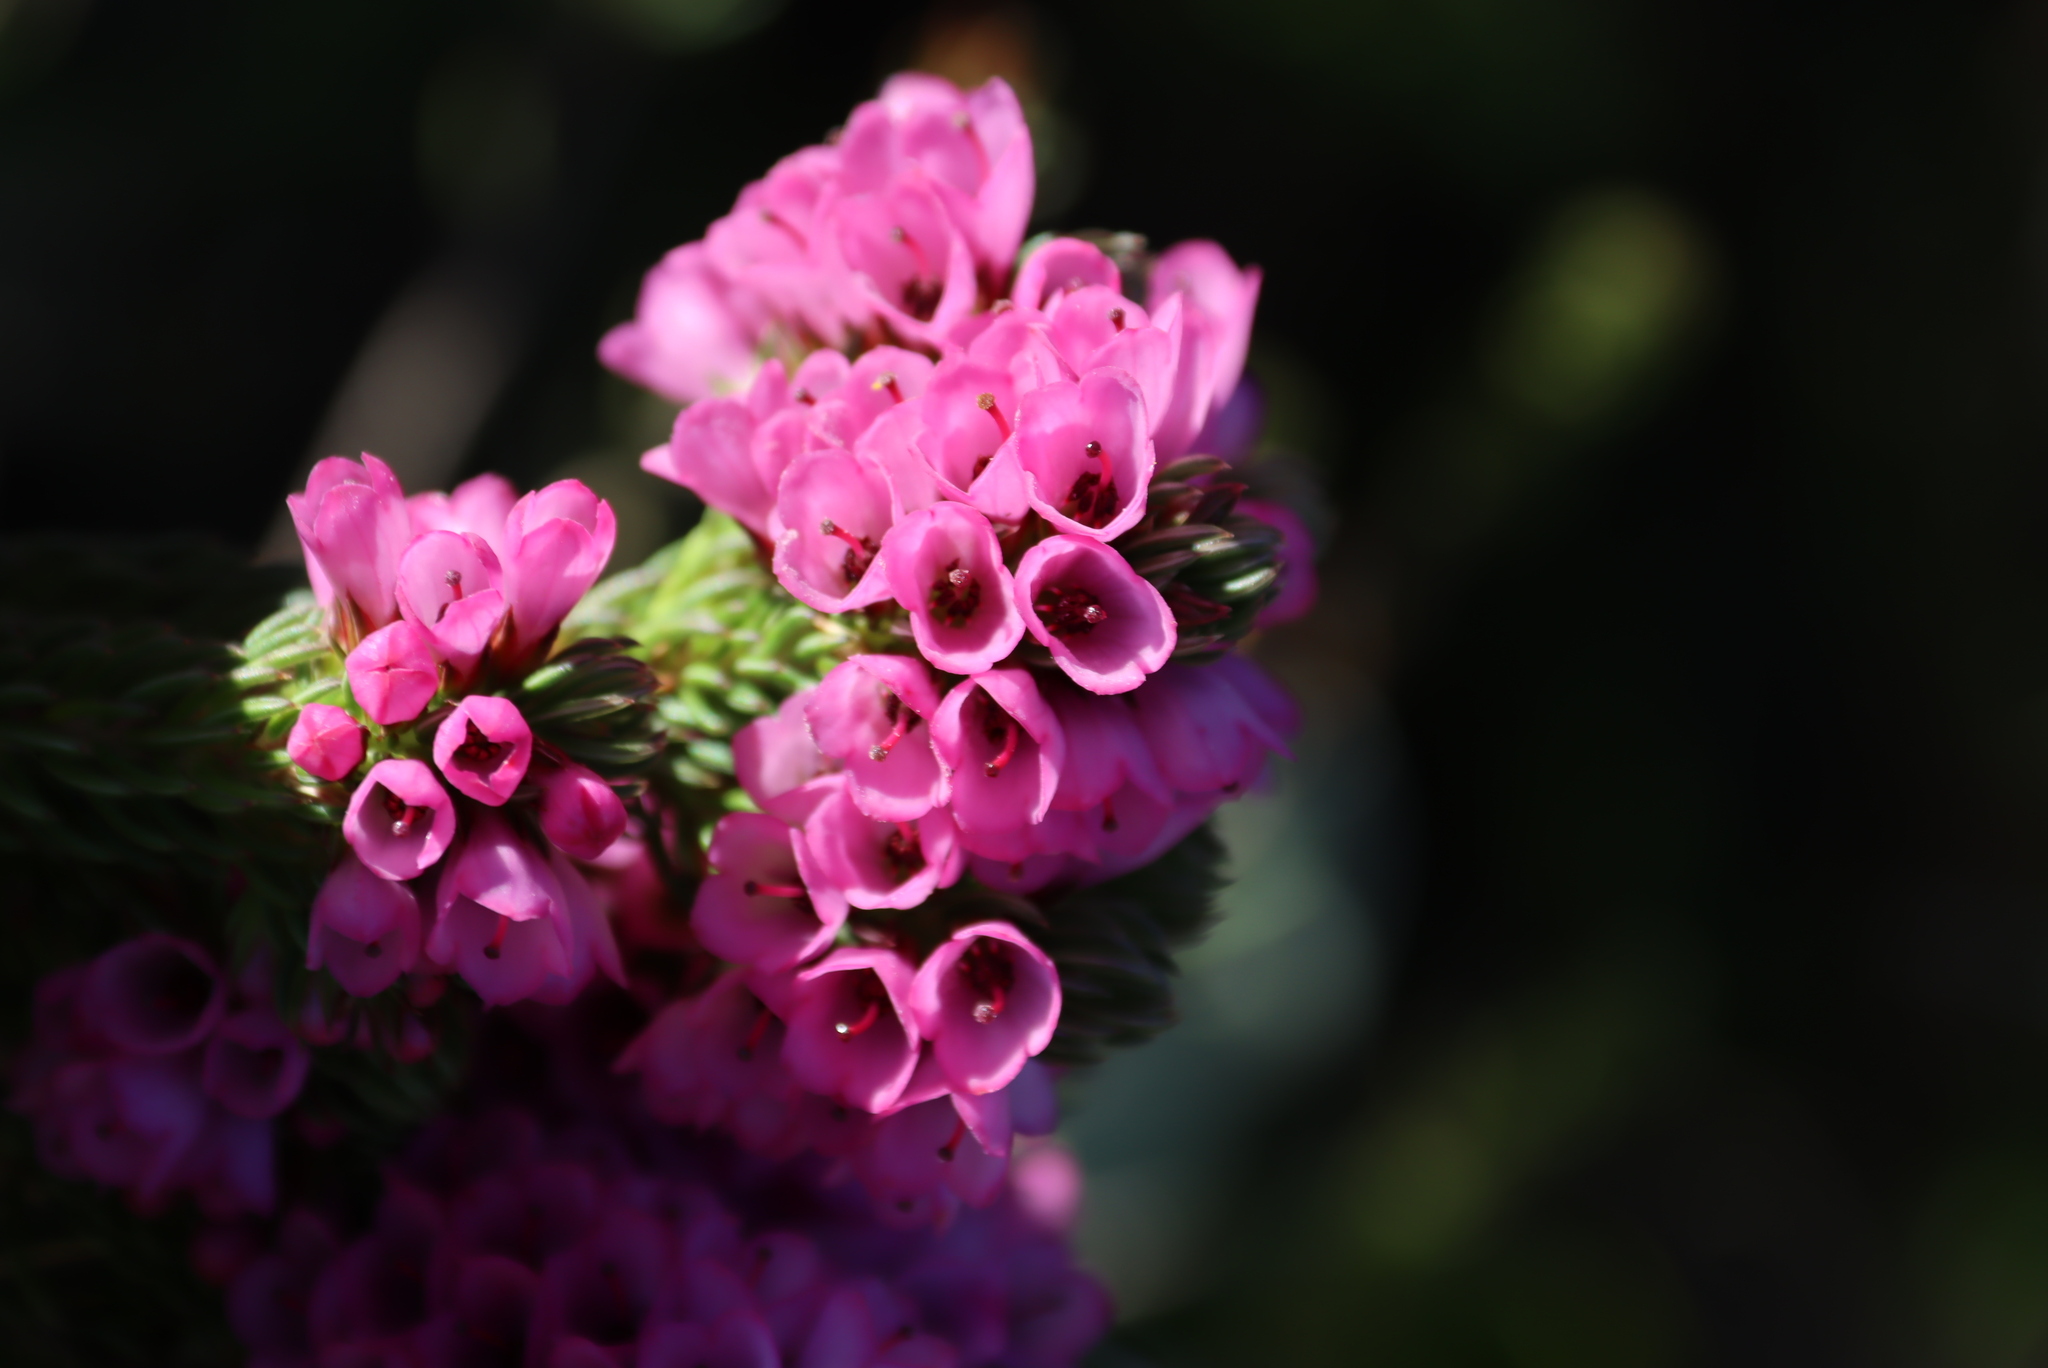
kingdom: Plantae
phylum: Tracheophyta
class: Magnoliopsida
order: Ericales
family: Ericaceae
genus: Erica
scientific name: Erica abietina
